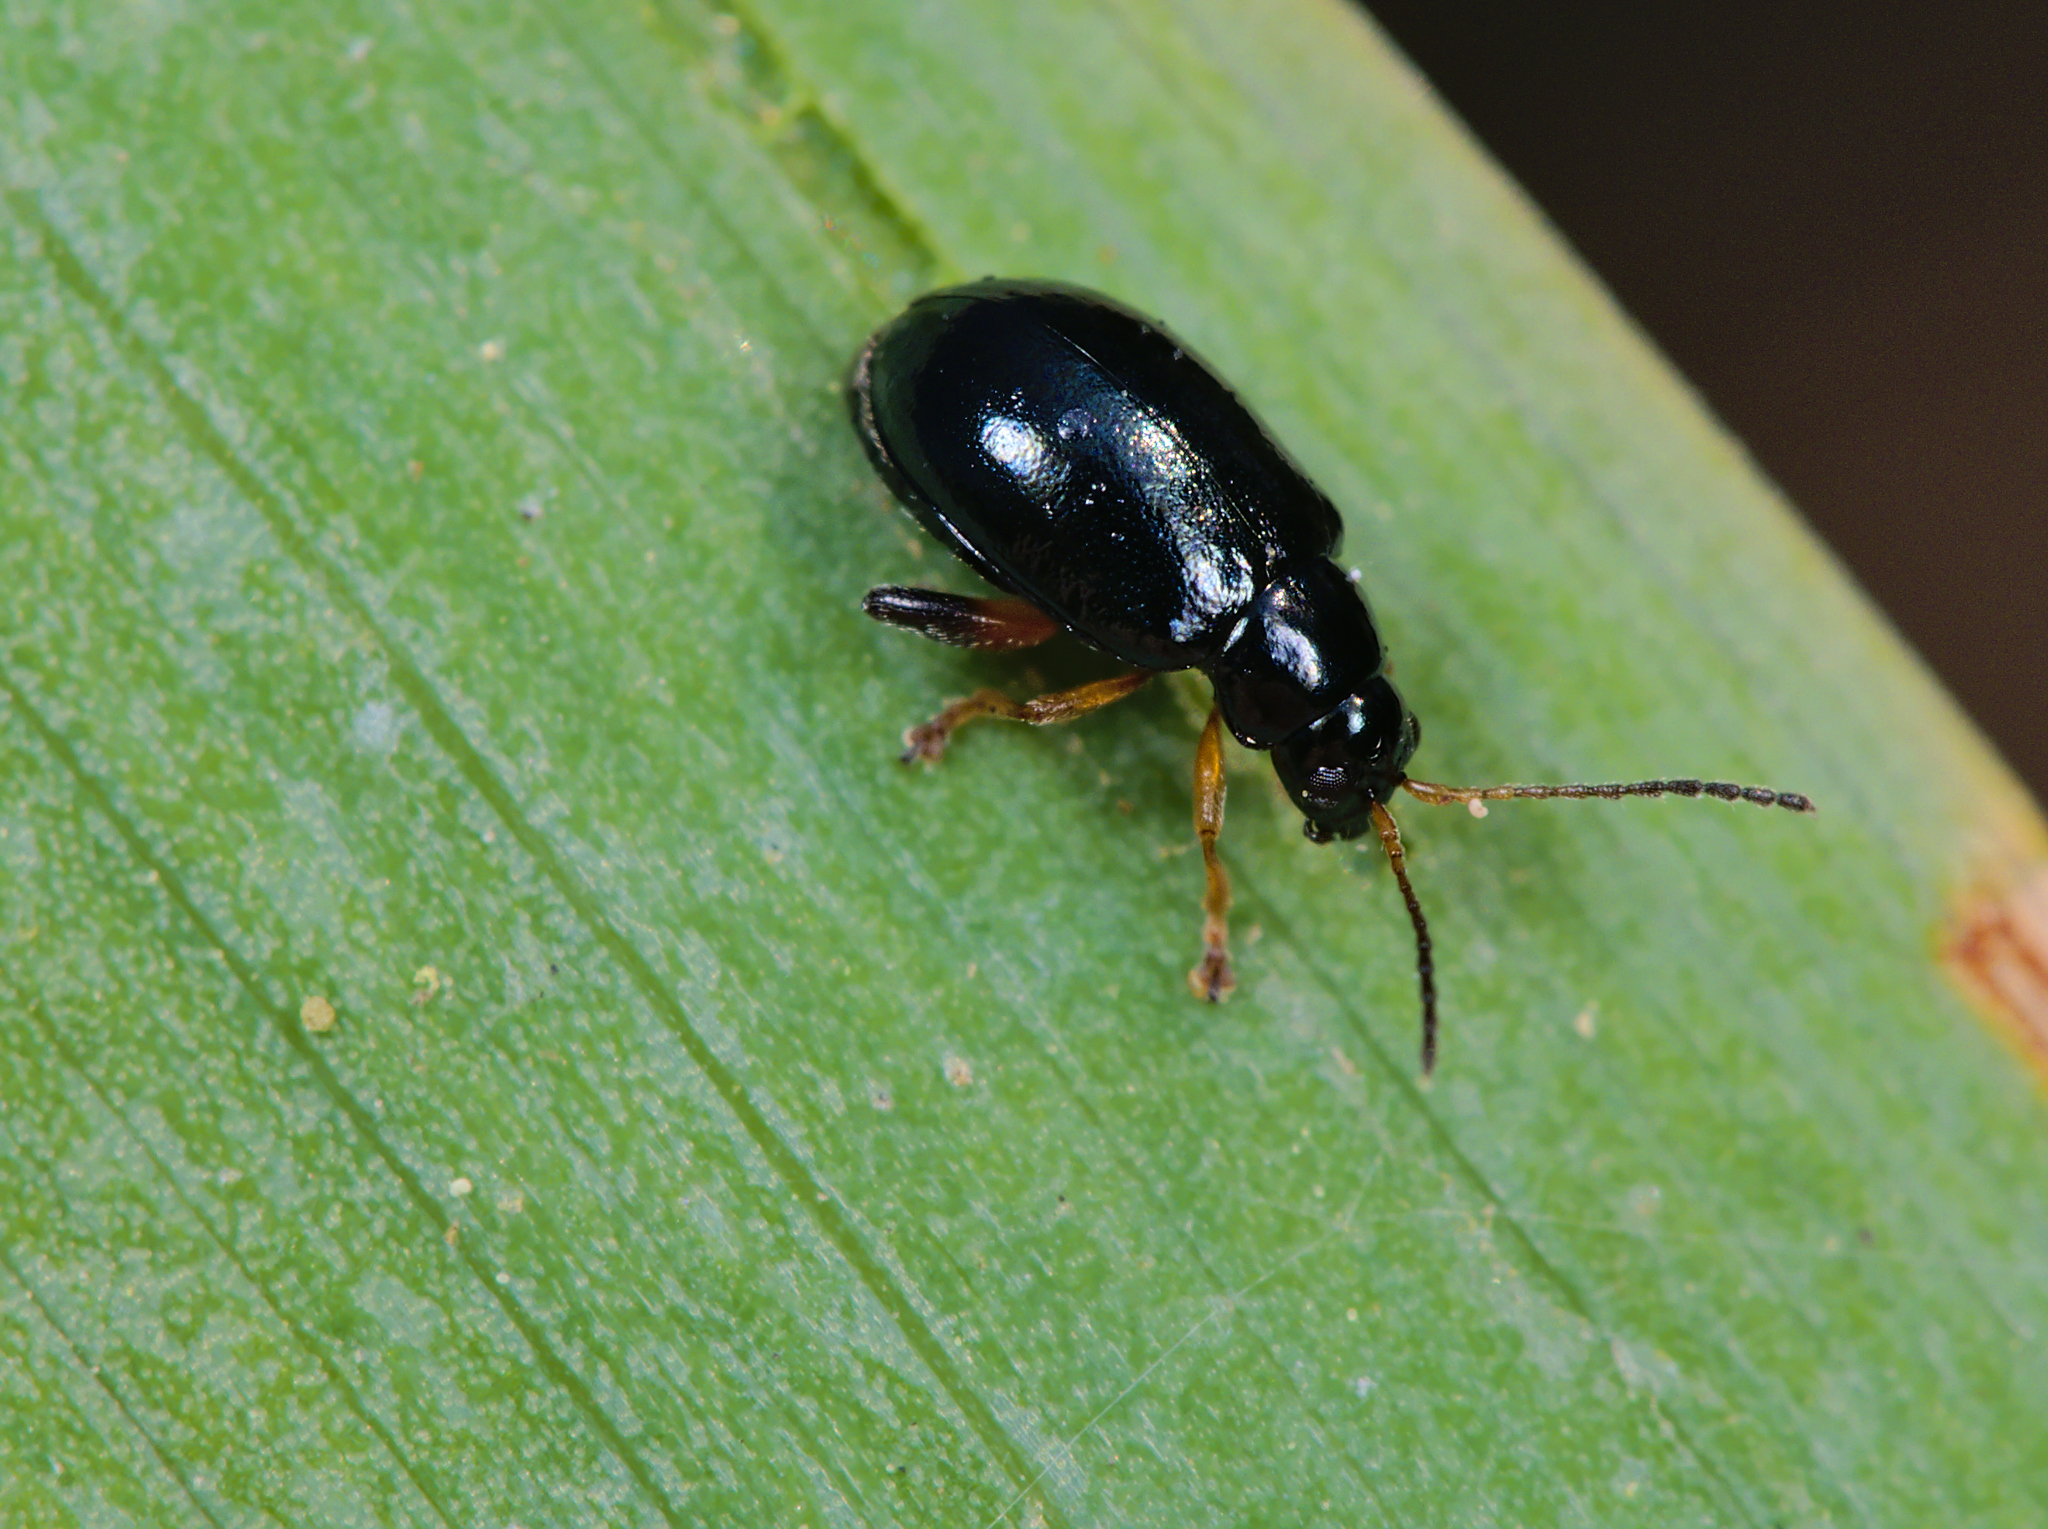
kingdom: Animalia
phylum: Arthropoda
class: Insecta
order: Coleoptera
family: Chrysomelidae
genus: Aphthona
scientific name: Aphthona nonstriata
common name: Iris flea beetle
